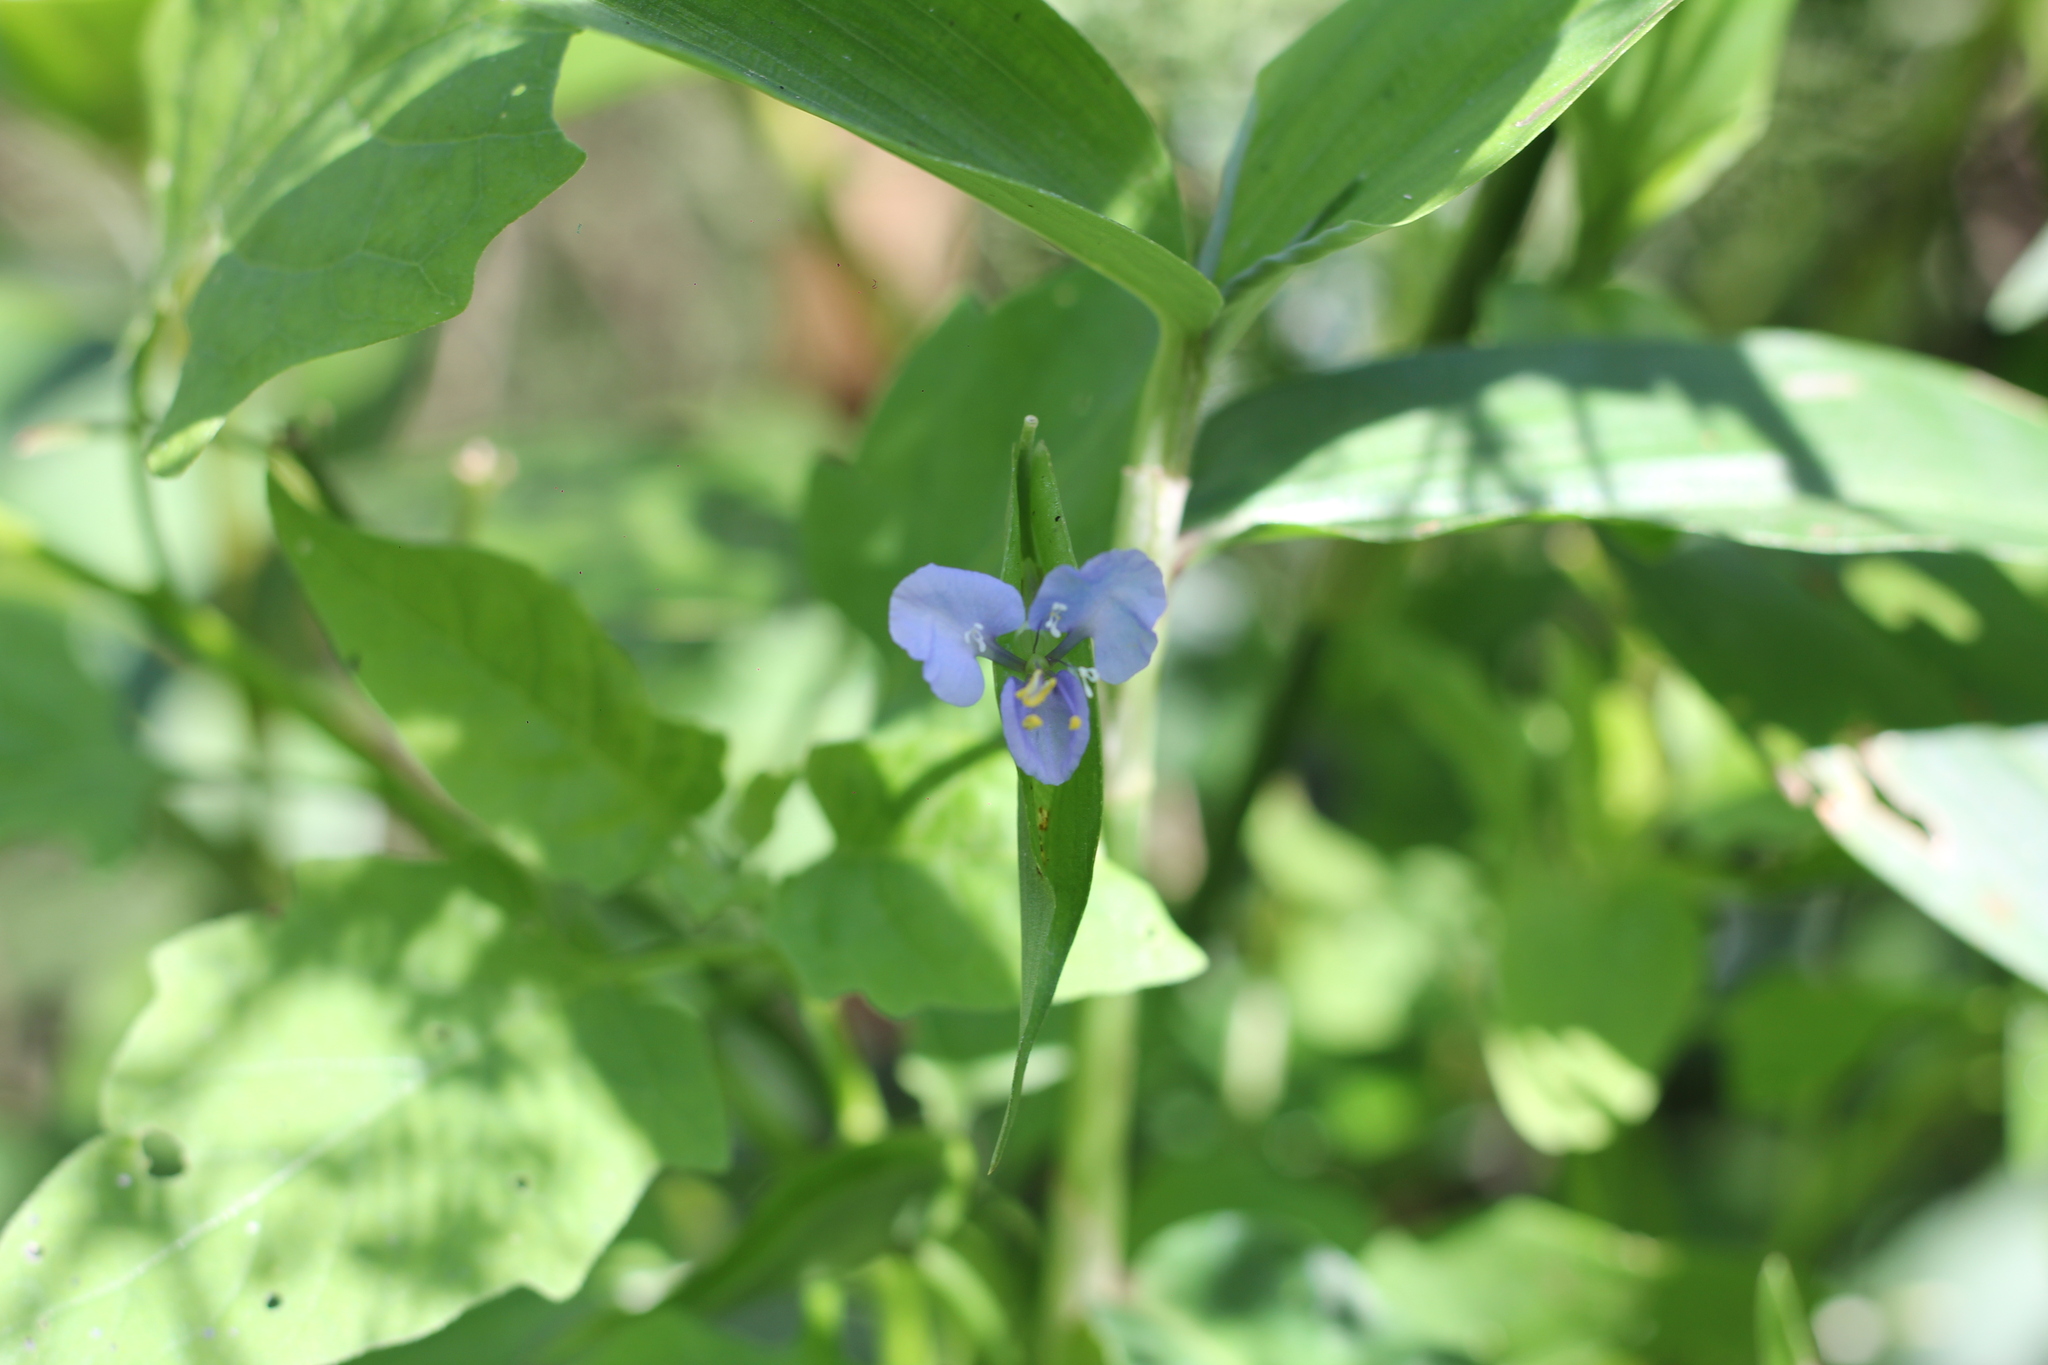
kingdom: Plantae
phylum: Tracheophyta
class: Liliopsida
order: Commelinales
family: Commelinaceae
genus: Commelina
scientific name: Commelina diffusa
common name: Climbing dayflower
